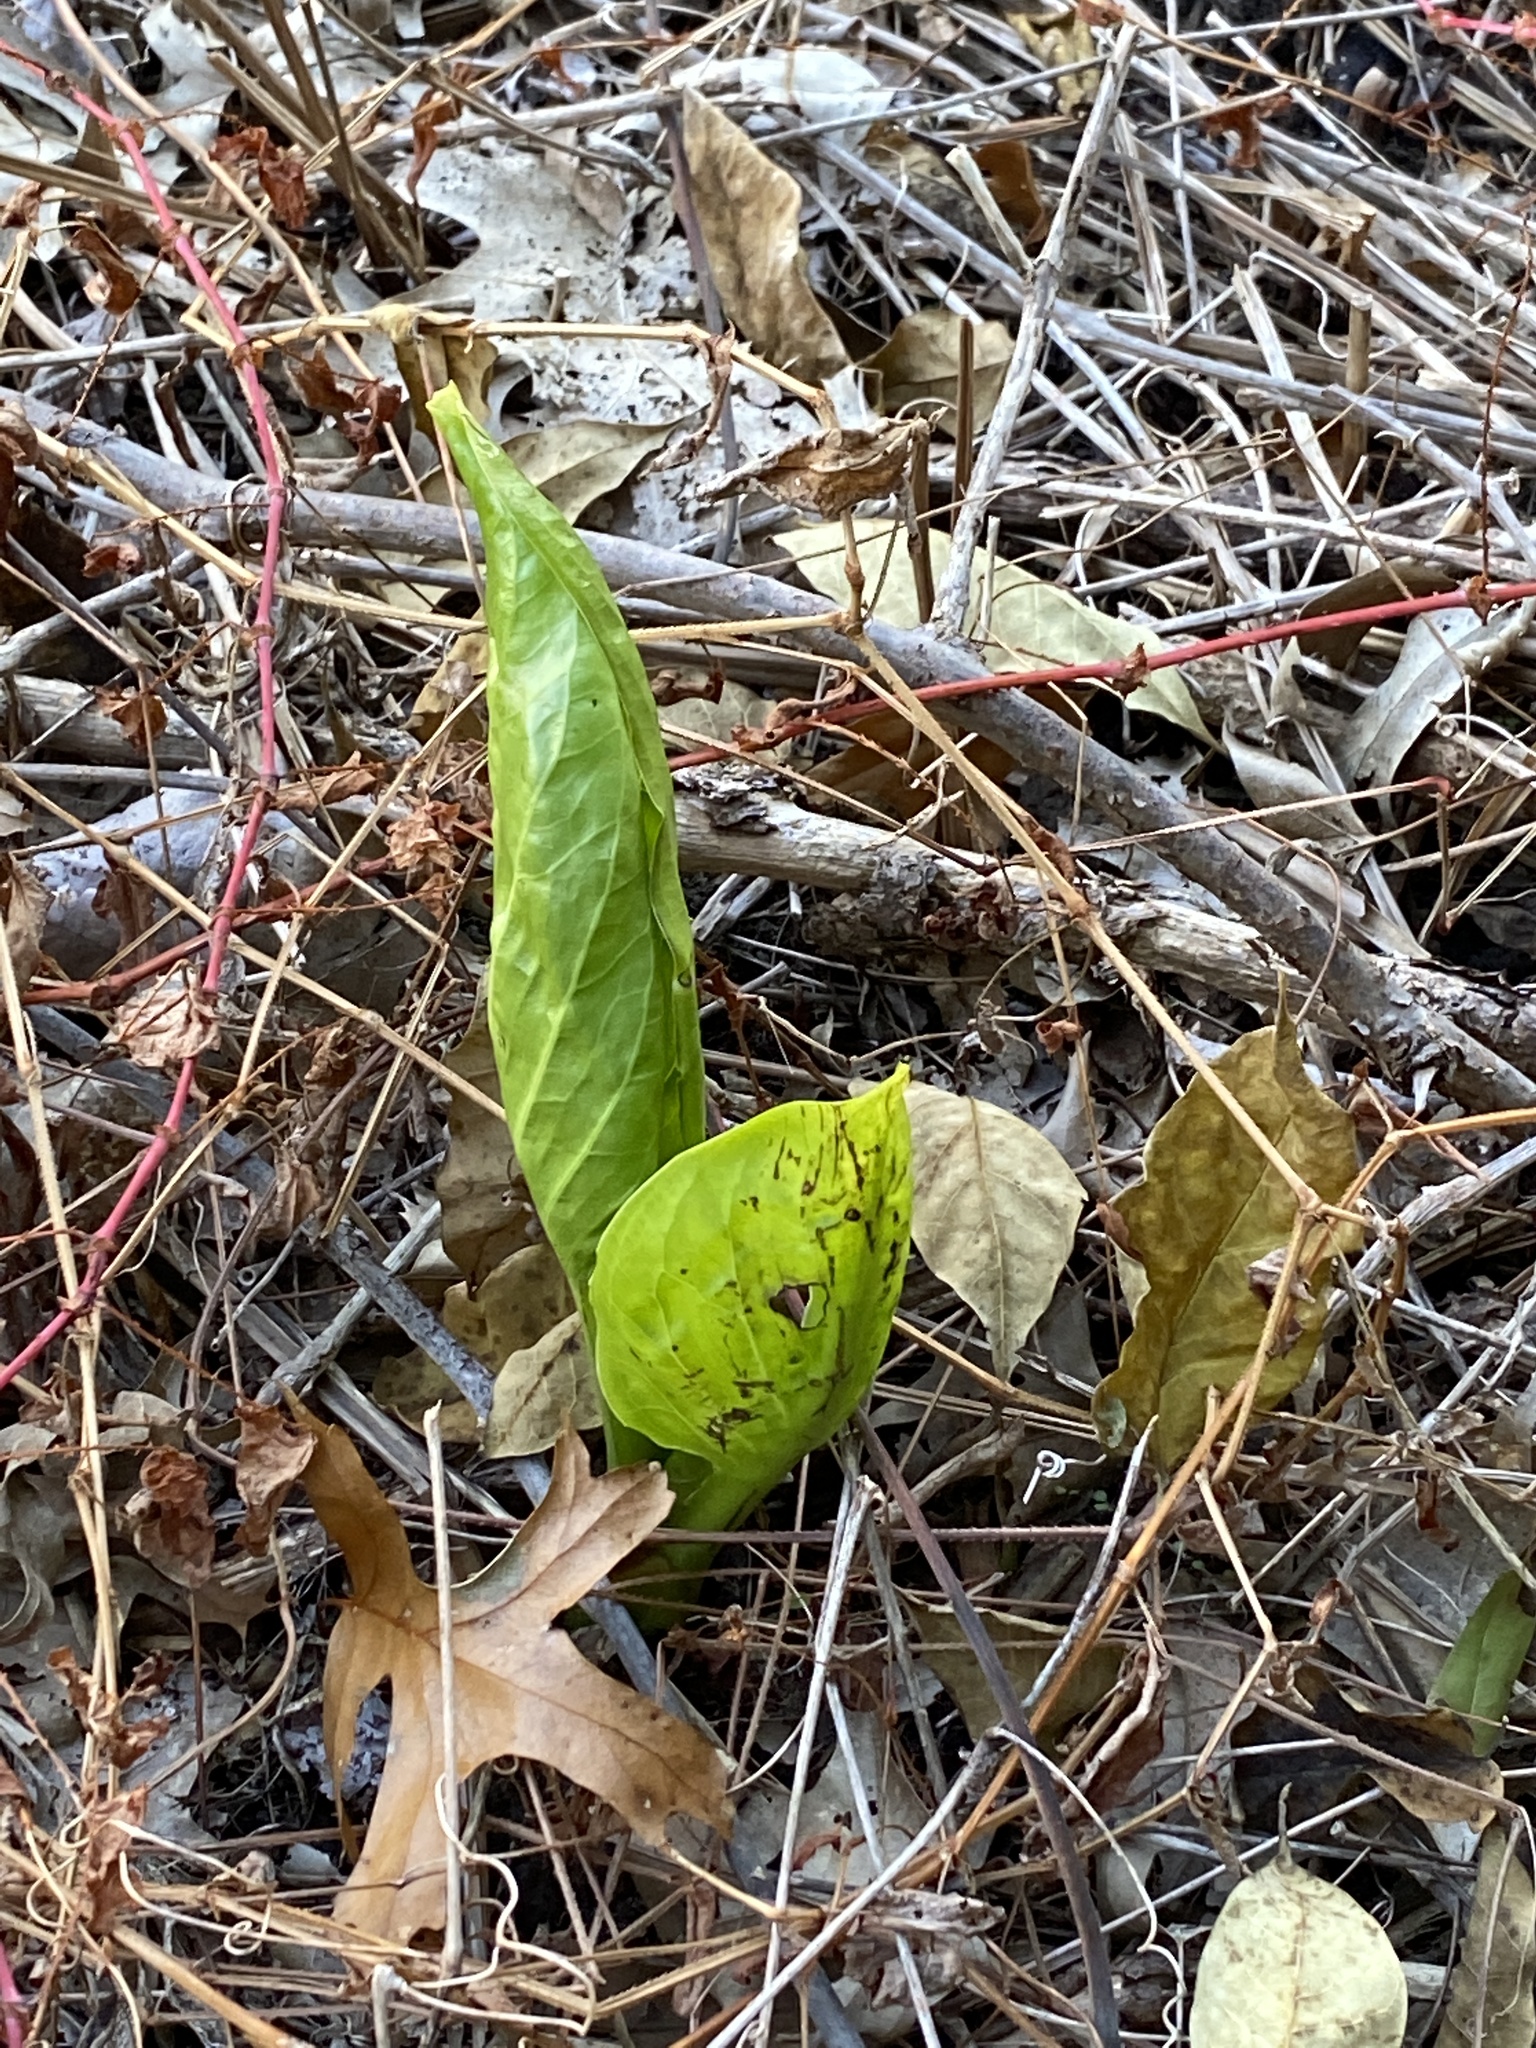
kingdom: Plantae
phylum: Tracheophyta
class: Liliopsida
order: Alismatales
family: Araceae
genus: Symplocarpus
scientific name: Symplocarpus foetidus
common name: Eastern skunk cabbage
